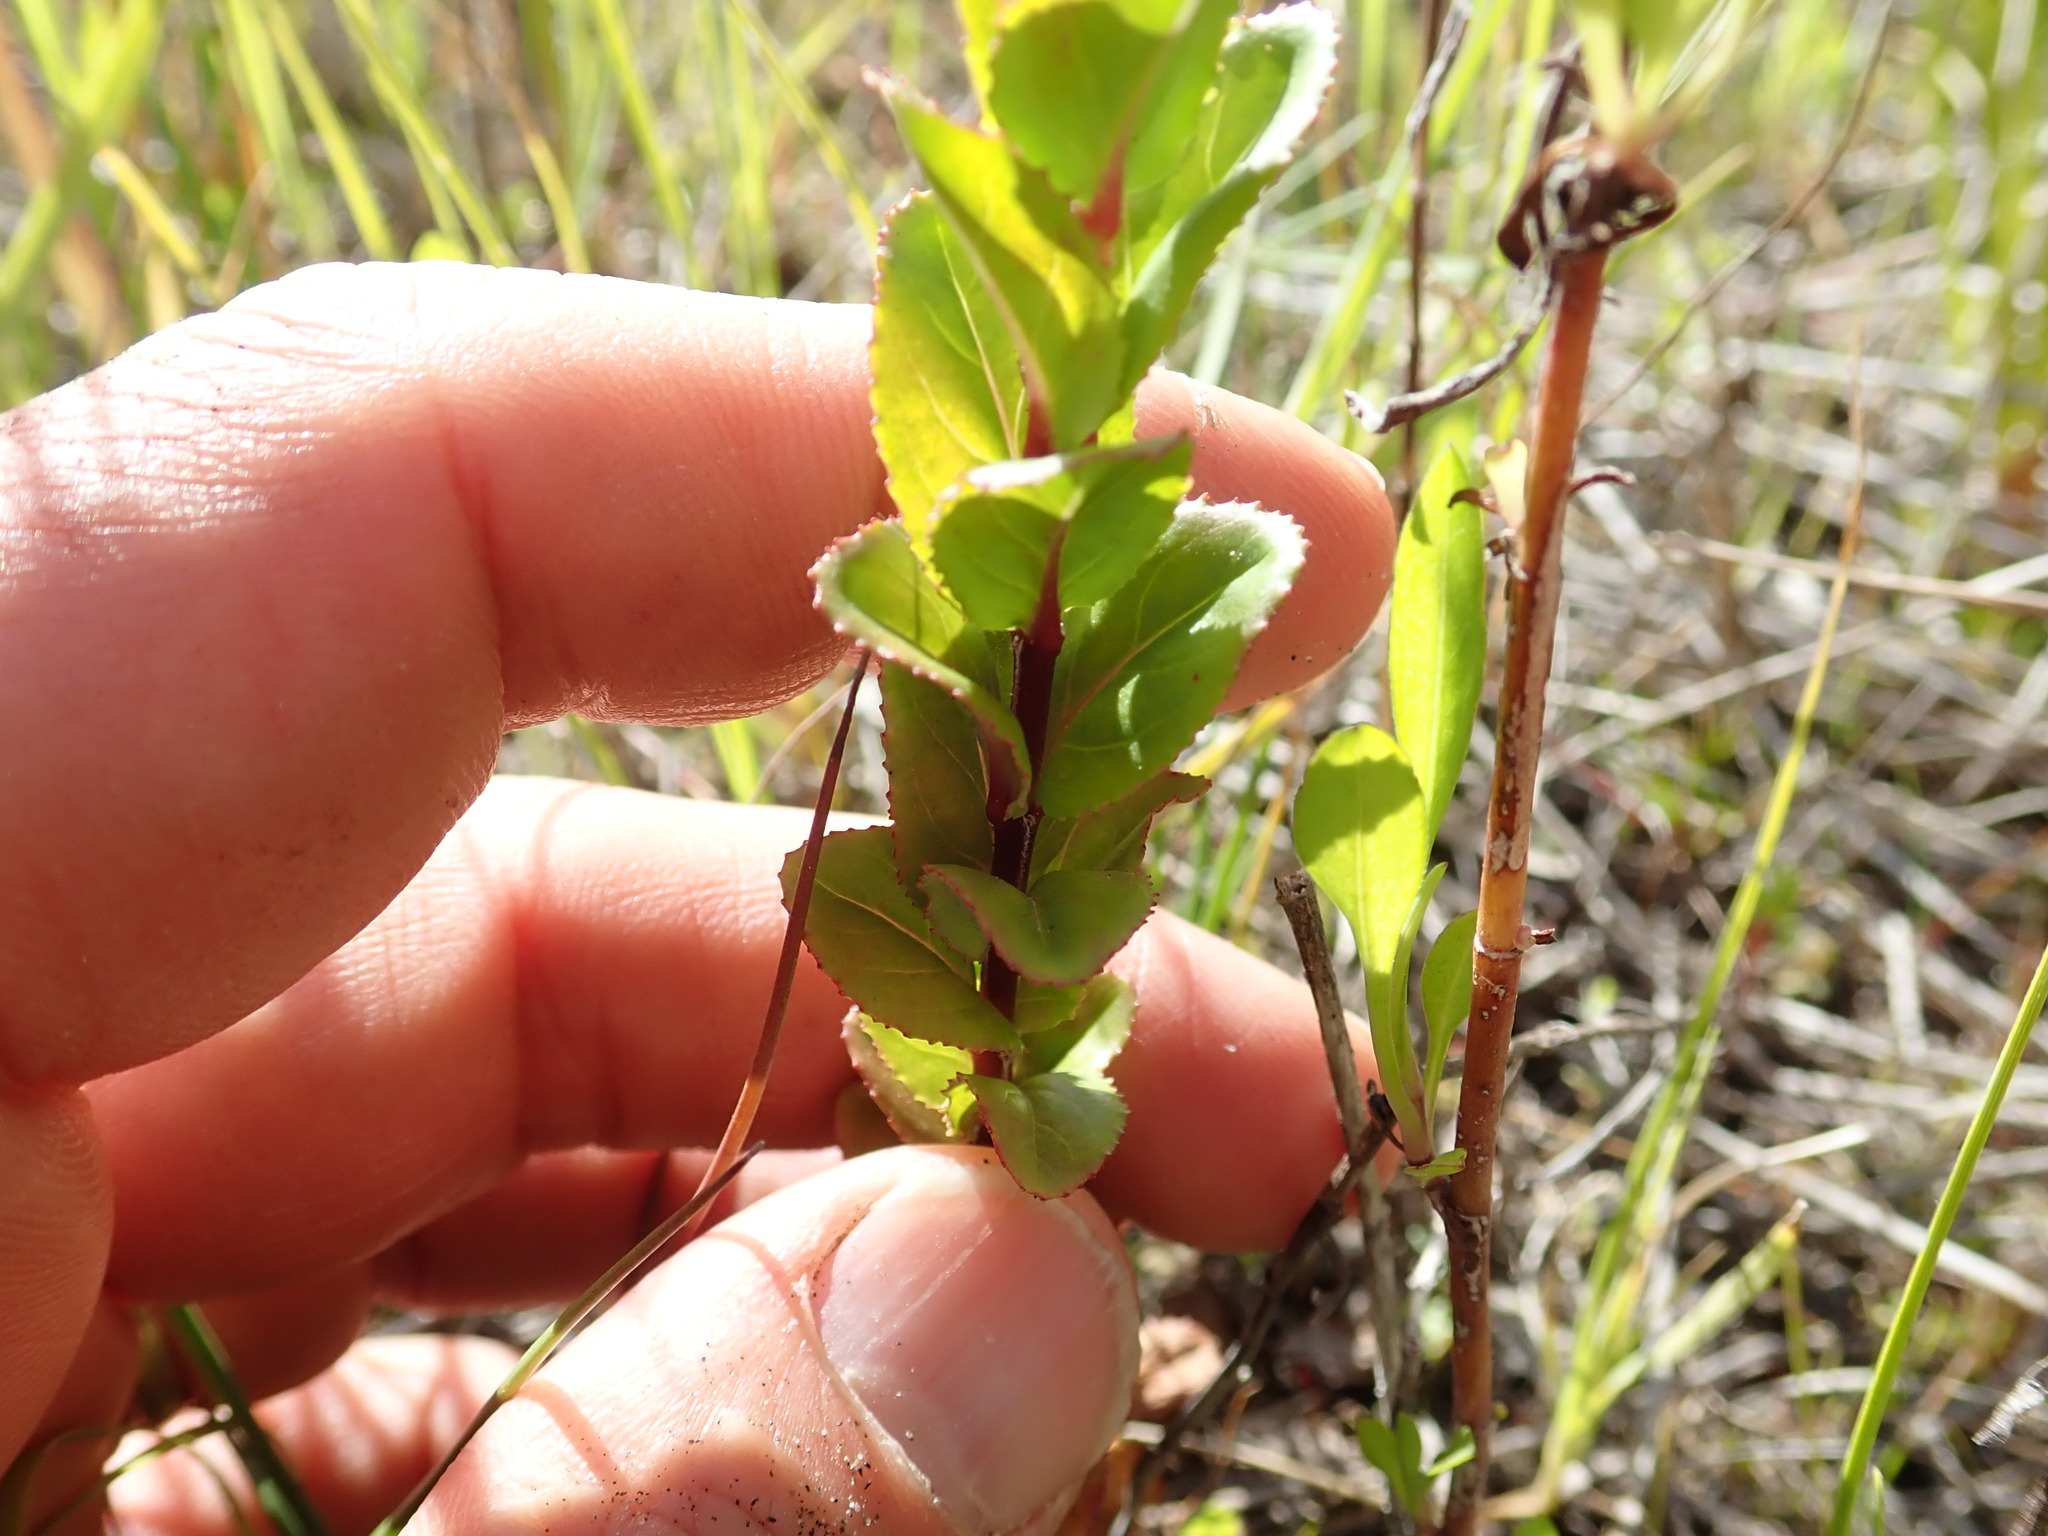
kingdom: Plantae
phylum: Tracheophyta
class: Magnoliopsida
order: Myrtales
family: Onagraceae
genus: Epilobium
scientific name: Epilobium billardiereanum
